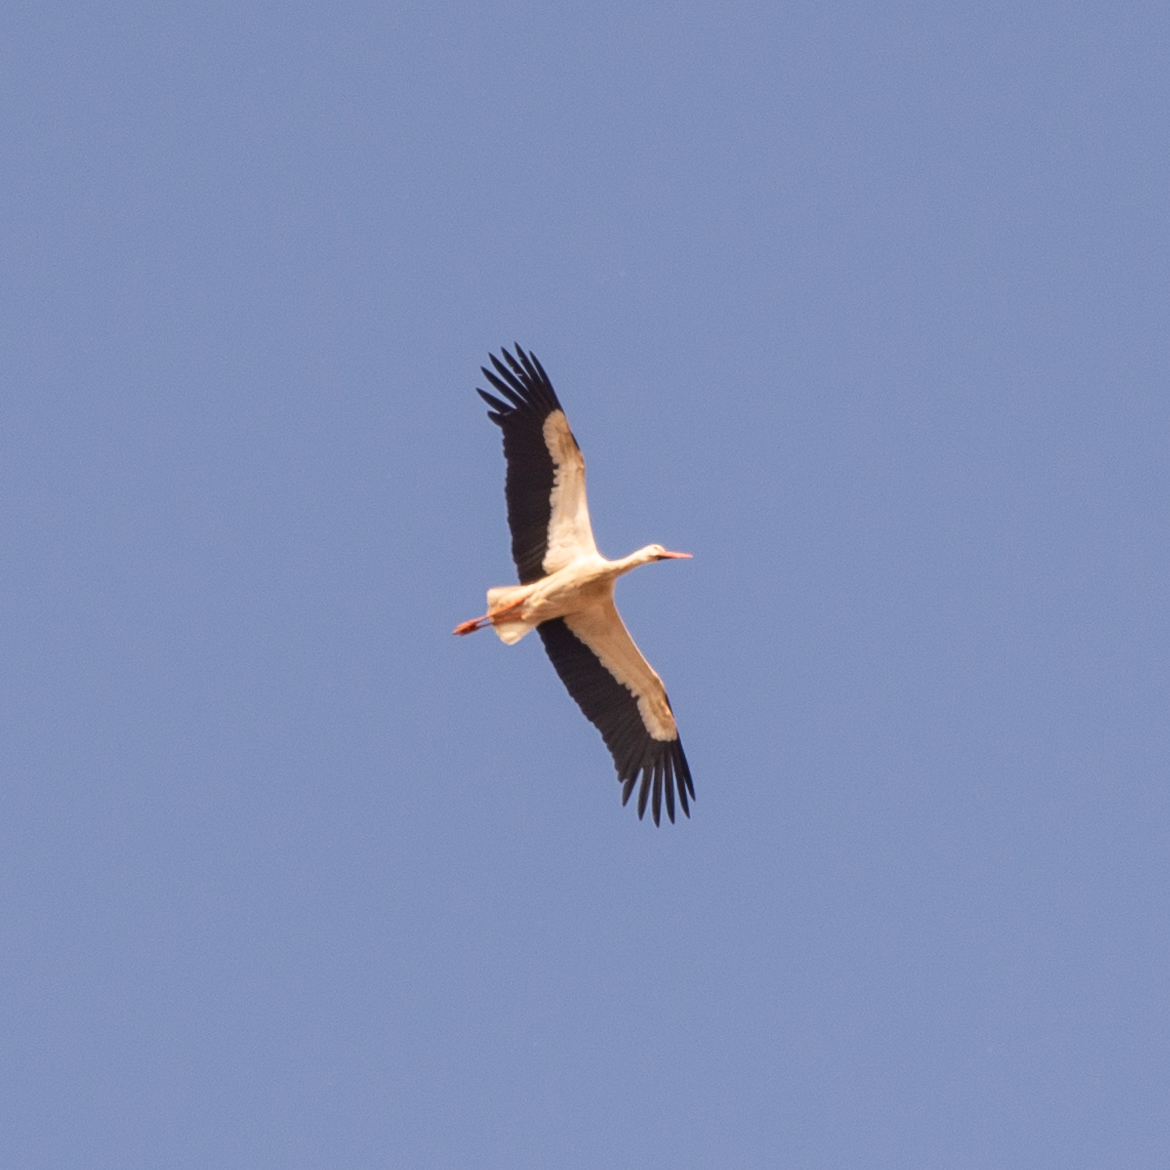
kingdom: Animalia
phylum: Chordata
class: Aves
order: Ciconiiformes
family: Ciconiidae
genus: Ciconia
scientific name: Ciconia ciconia
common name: White stork
